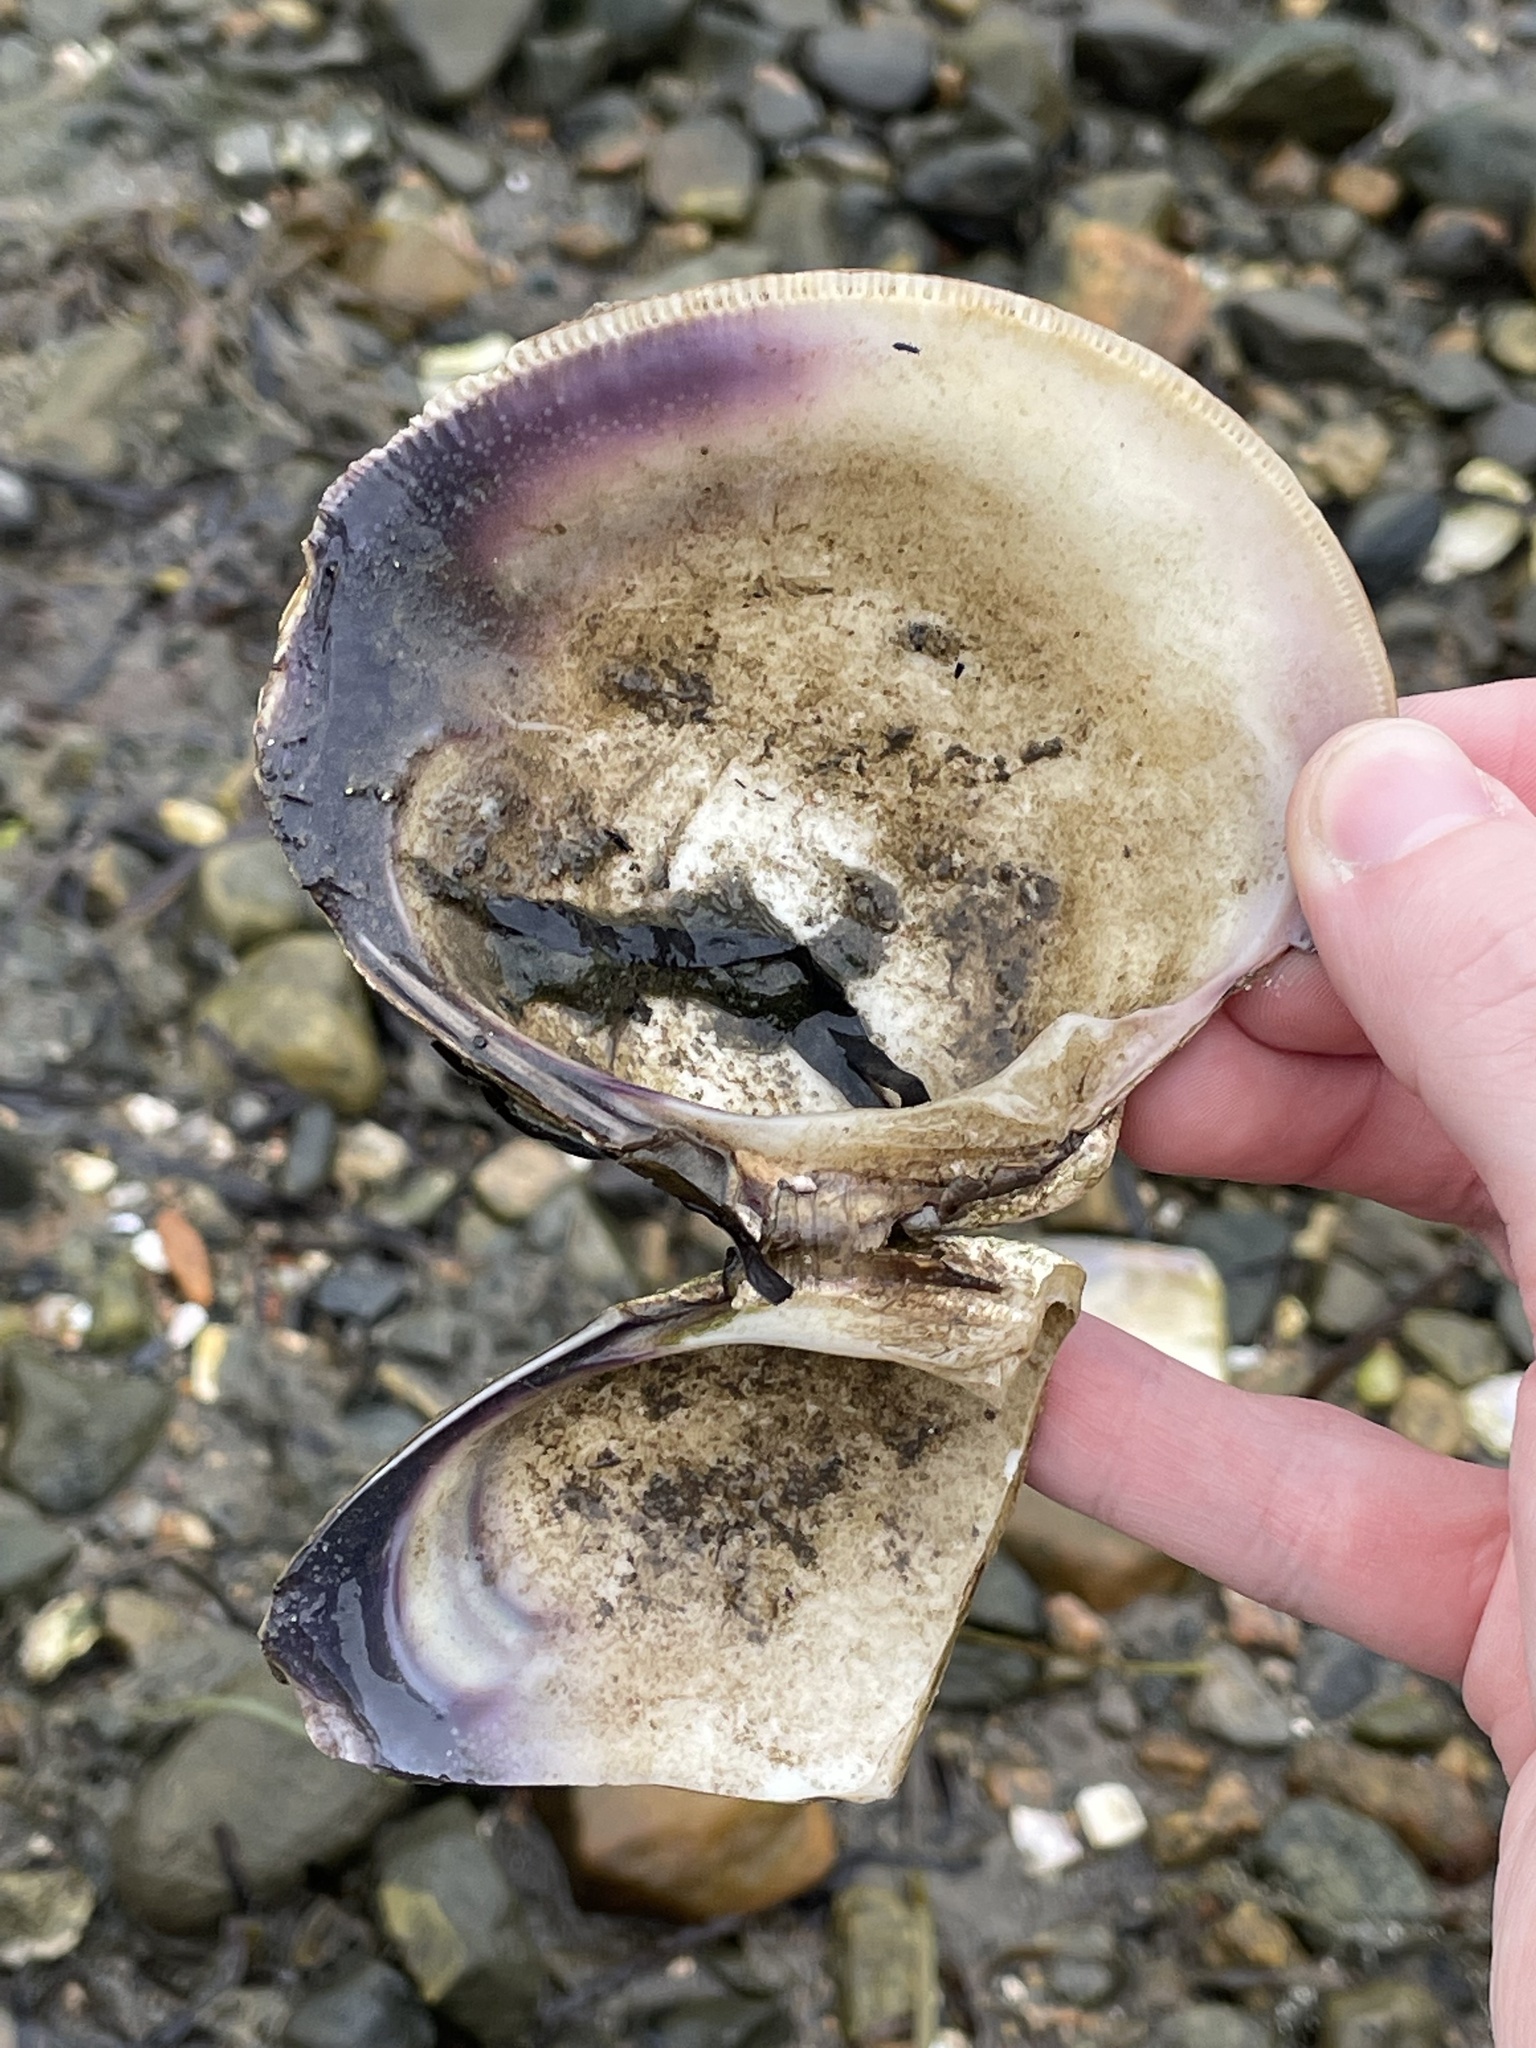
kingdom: Animalia
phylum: Mollusca
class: Bivalvia
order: Venerida
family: Veneridae
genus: Mercenaria
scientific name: Mercenaria mercenaria
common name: American hard-shelled clam
